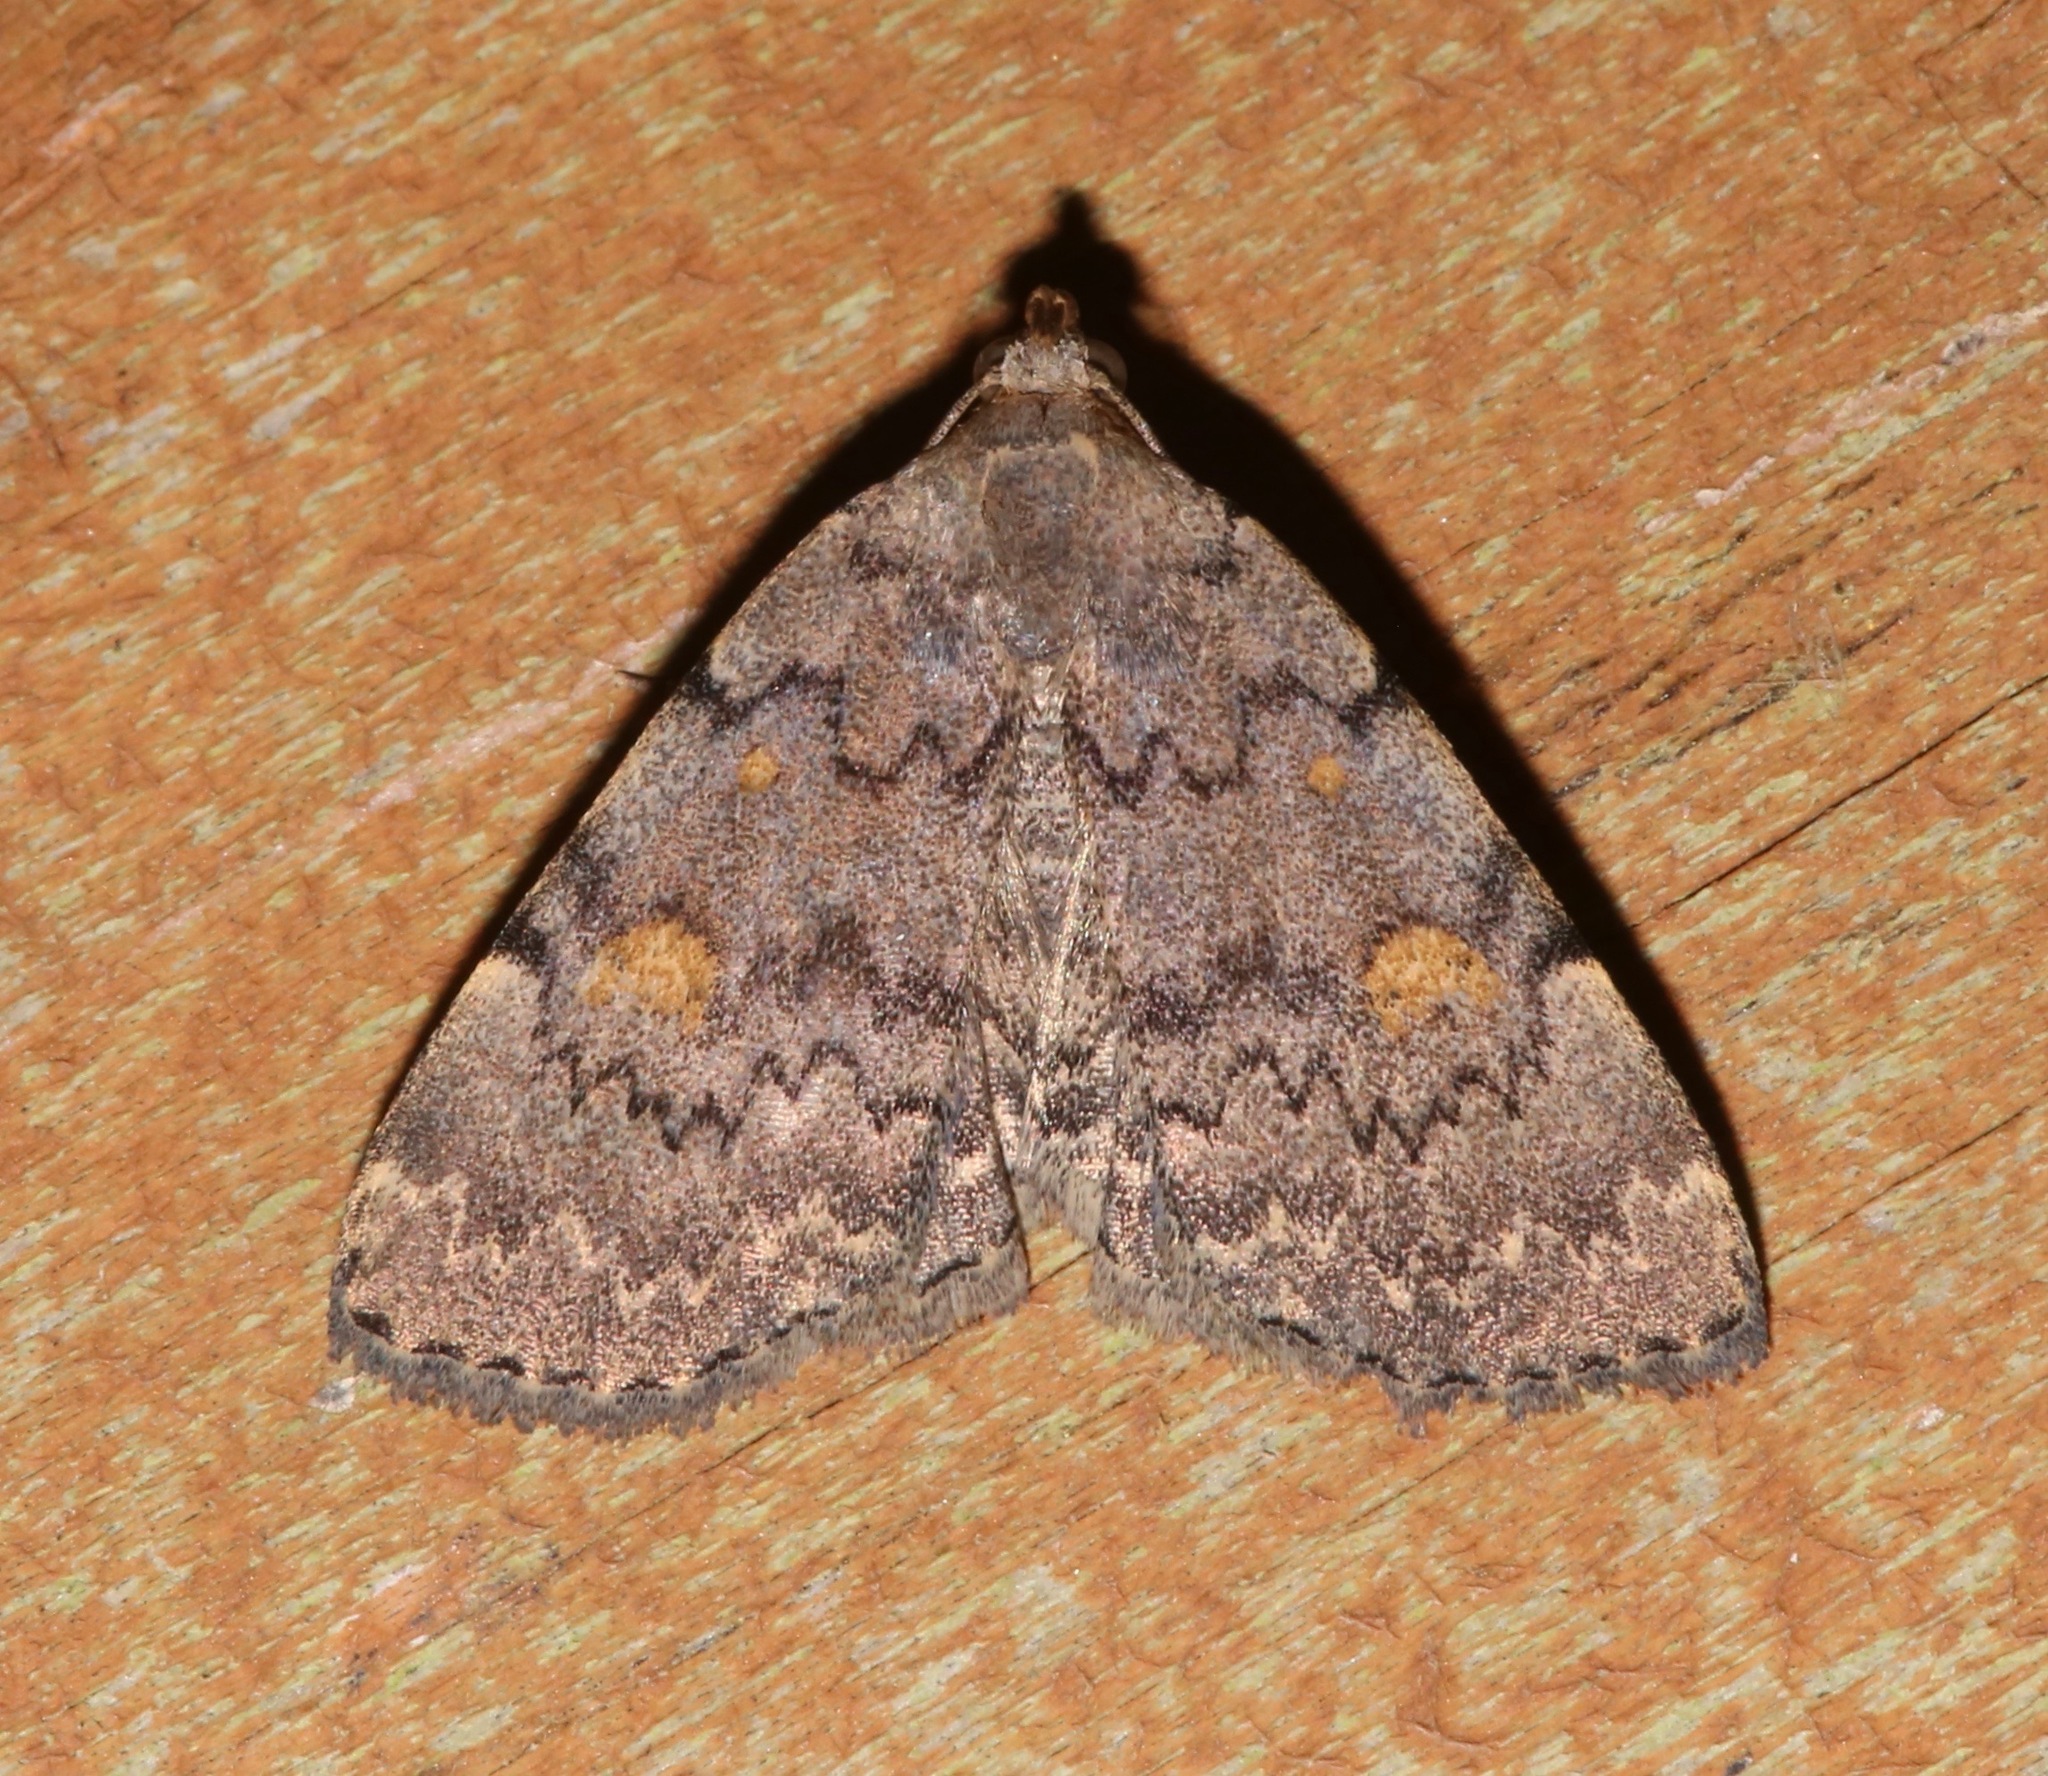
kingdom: Animalia
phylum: Arthropoda
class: Insecta
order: Lepidoptera
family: Erebidae
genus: Idia
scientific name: Idia aemula
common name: Common idia moth
